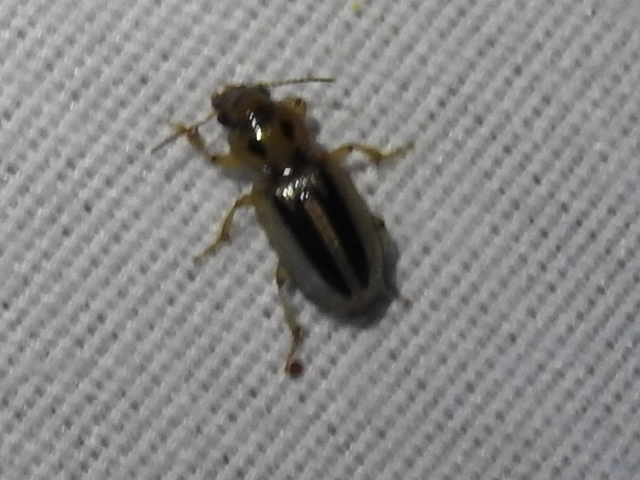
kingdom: Animalia
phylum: Arthropoda
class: Insecta
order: Coleoptera
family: Carabidae
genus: Stenolophus
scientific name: Stenolophus lineola
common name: Lined stenolophus
